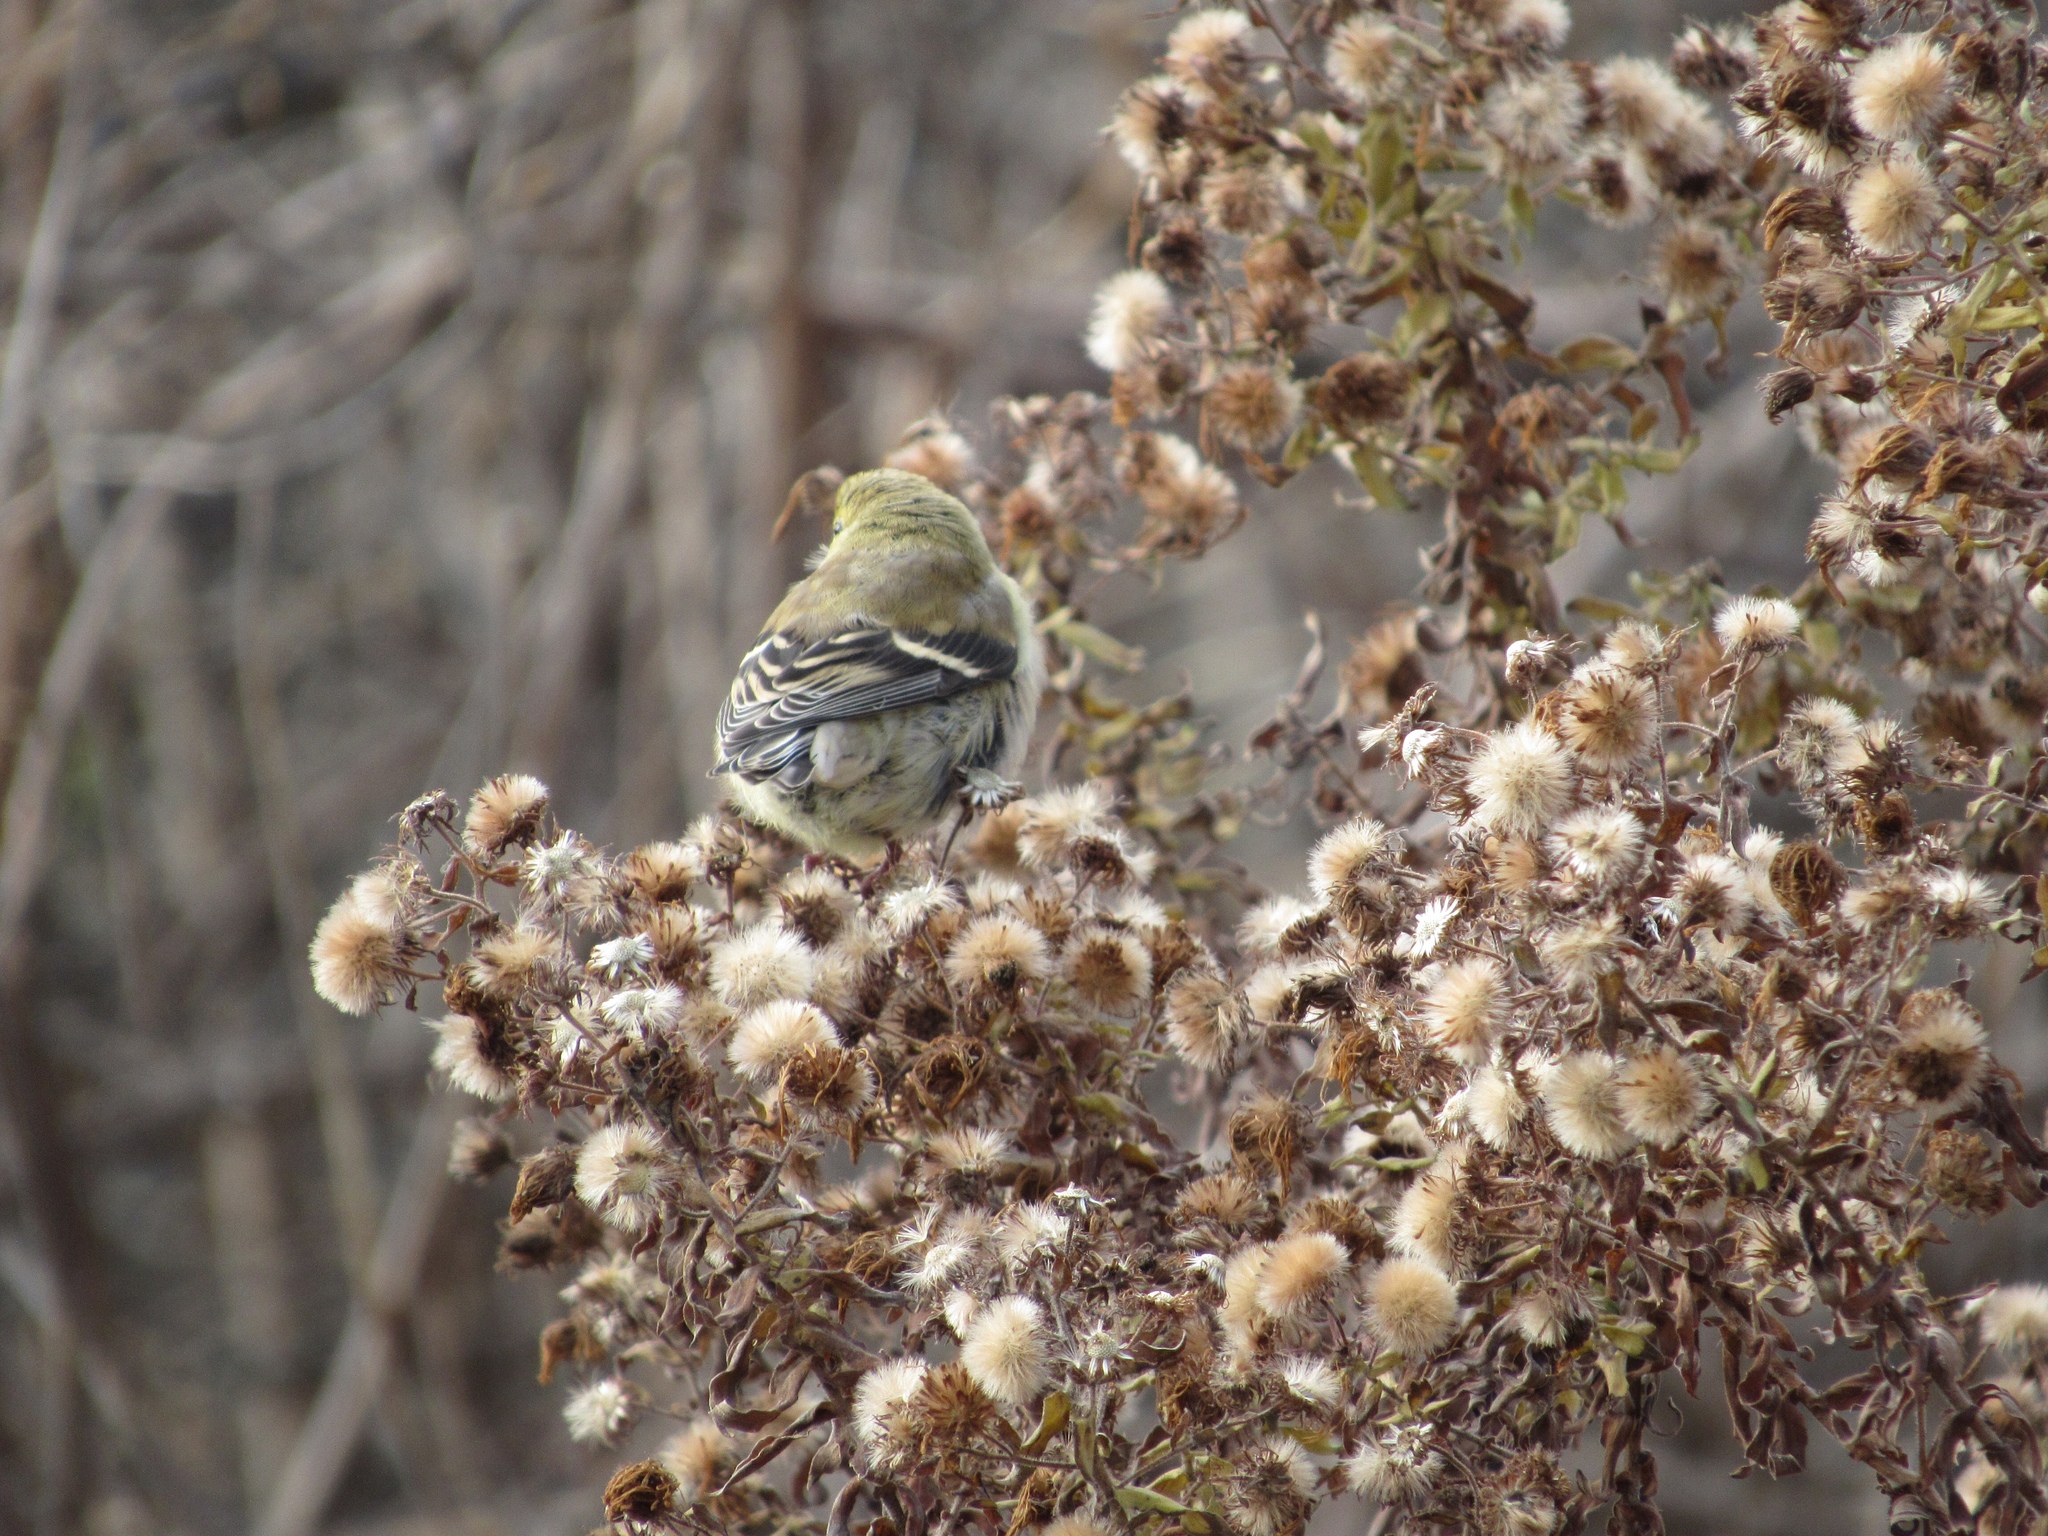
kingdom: Animalia
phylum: Chordata
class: Aves
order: Passeriformes
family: Fringillidae
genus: Spinus
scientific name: Spinus tristis
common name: American goldfinch
